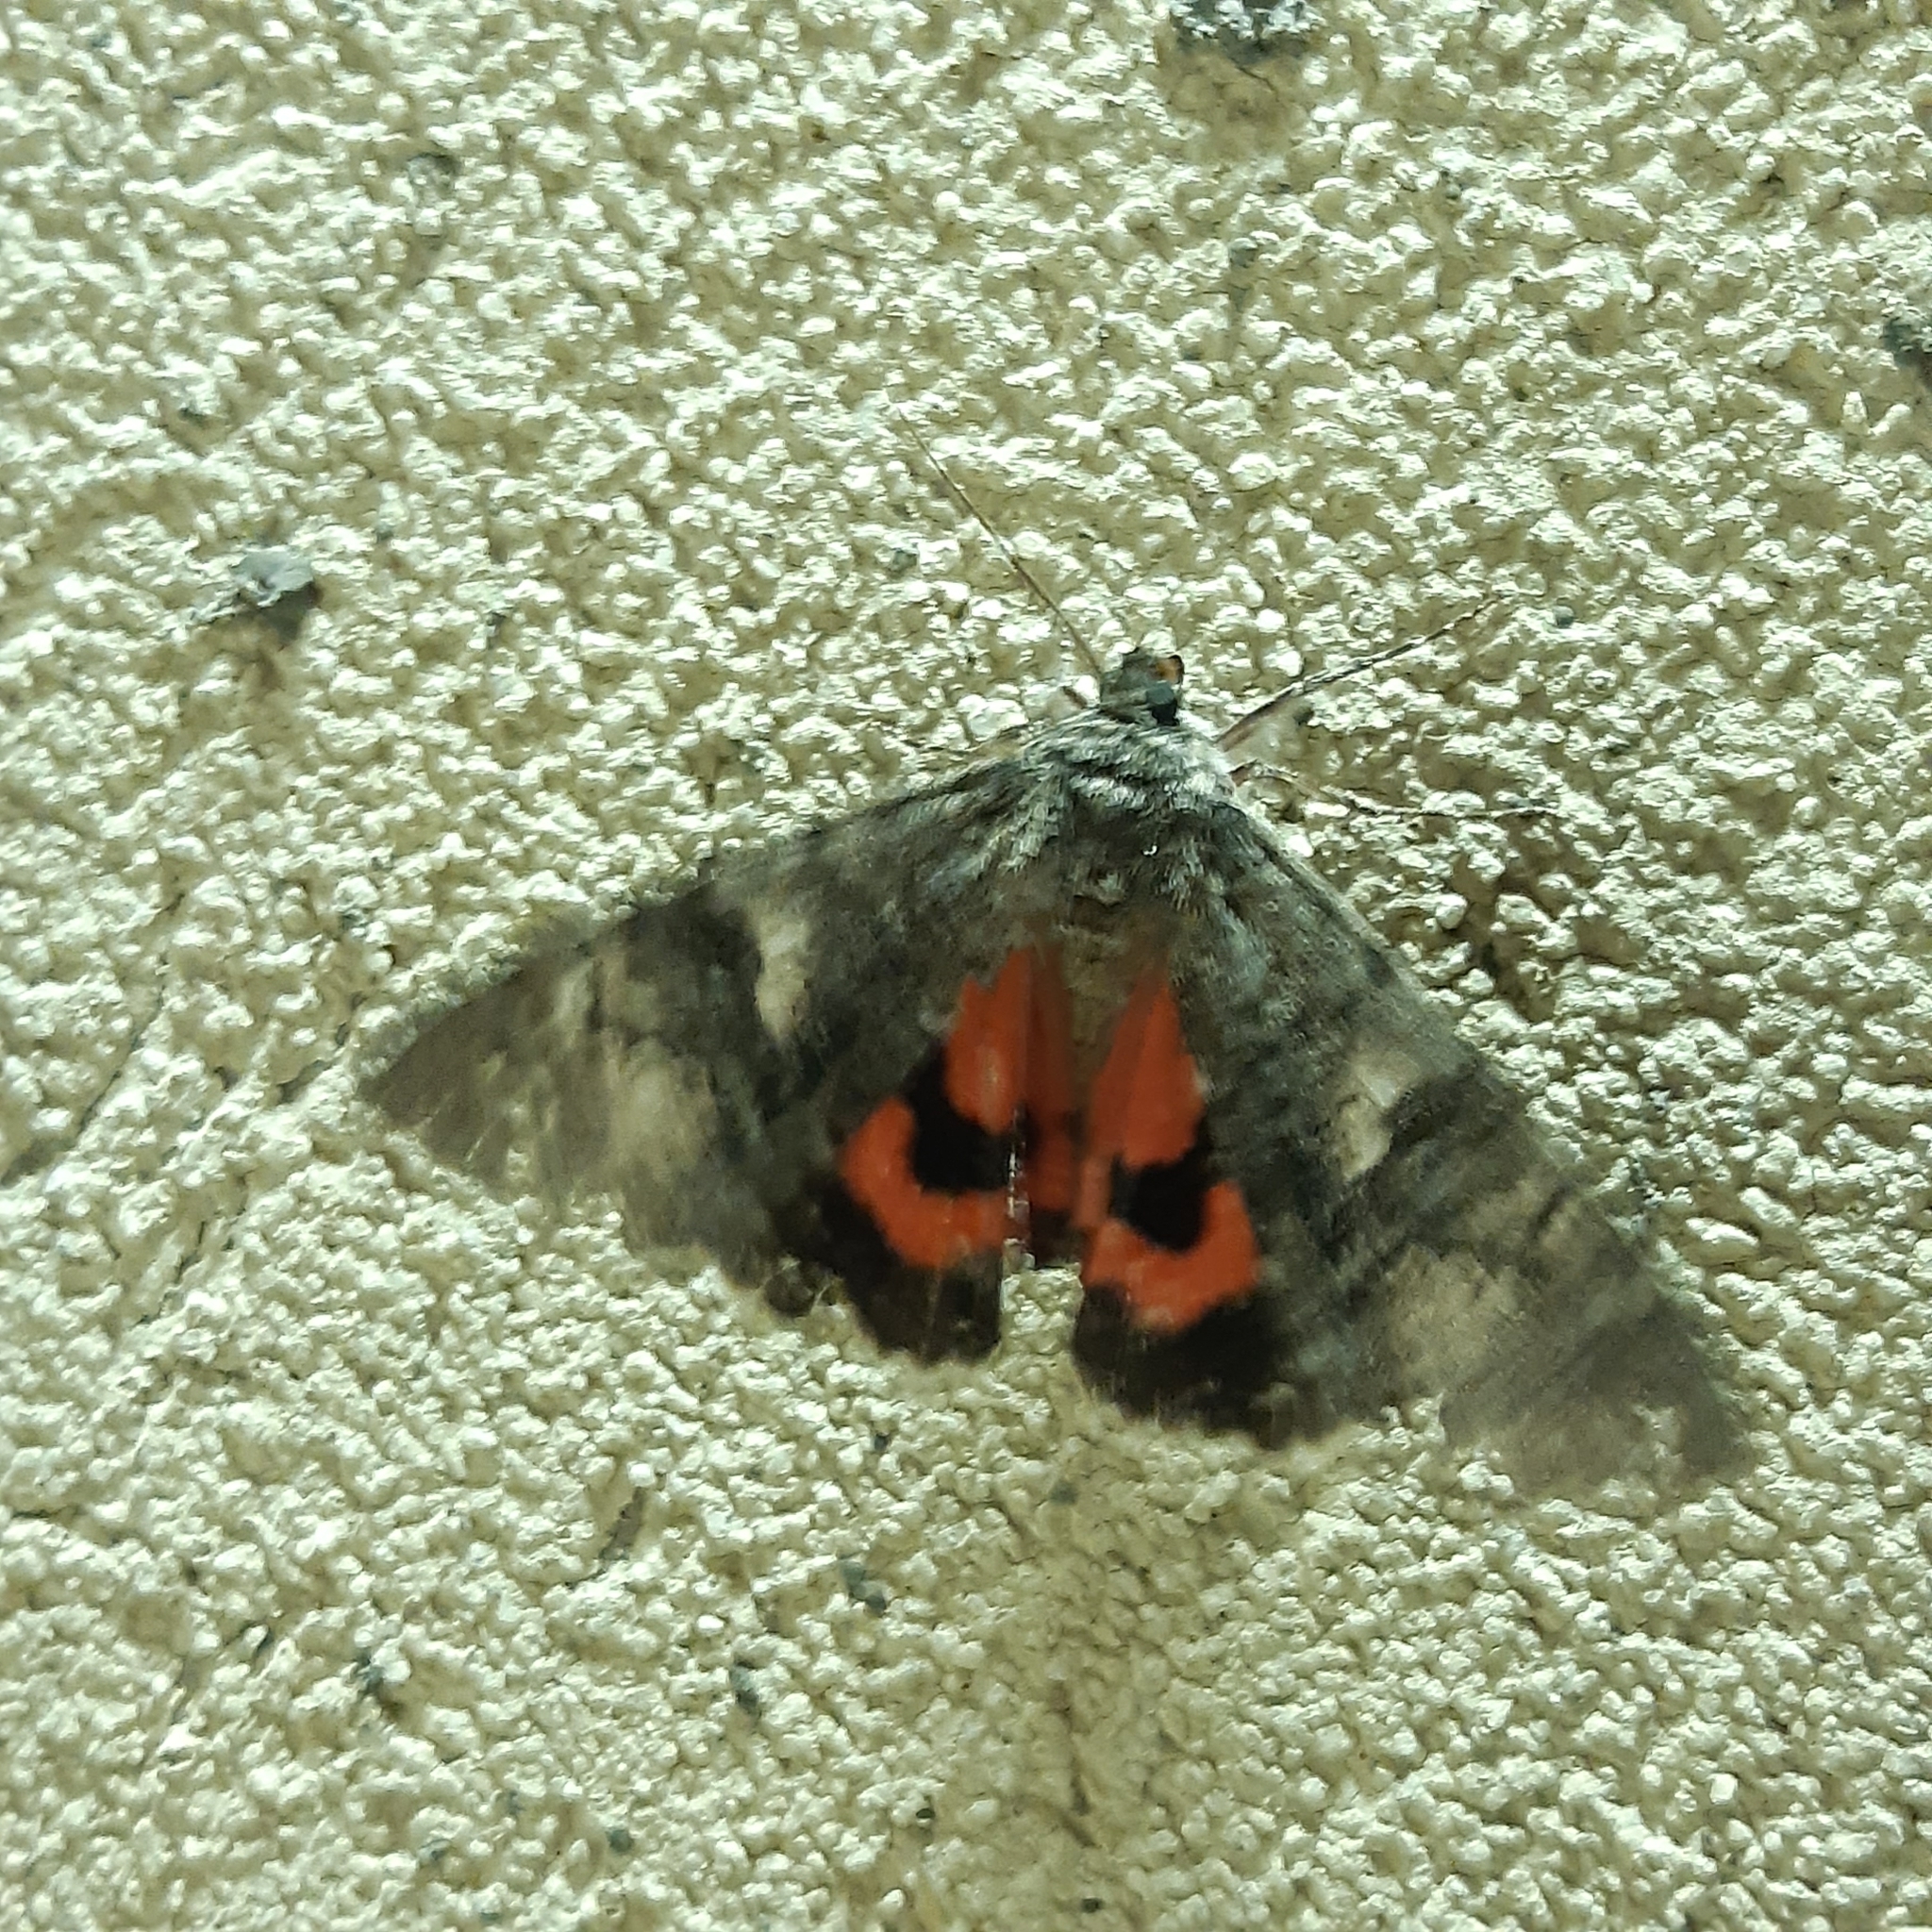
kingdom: Animalia
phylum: Arthropoda
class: Insecta
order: Lepidoptera
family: Erebidae
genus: Catocala
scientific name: Catocala nupta
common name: Red underwing
